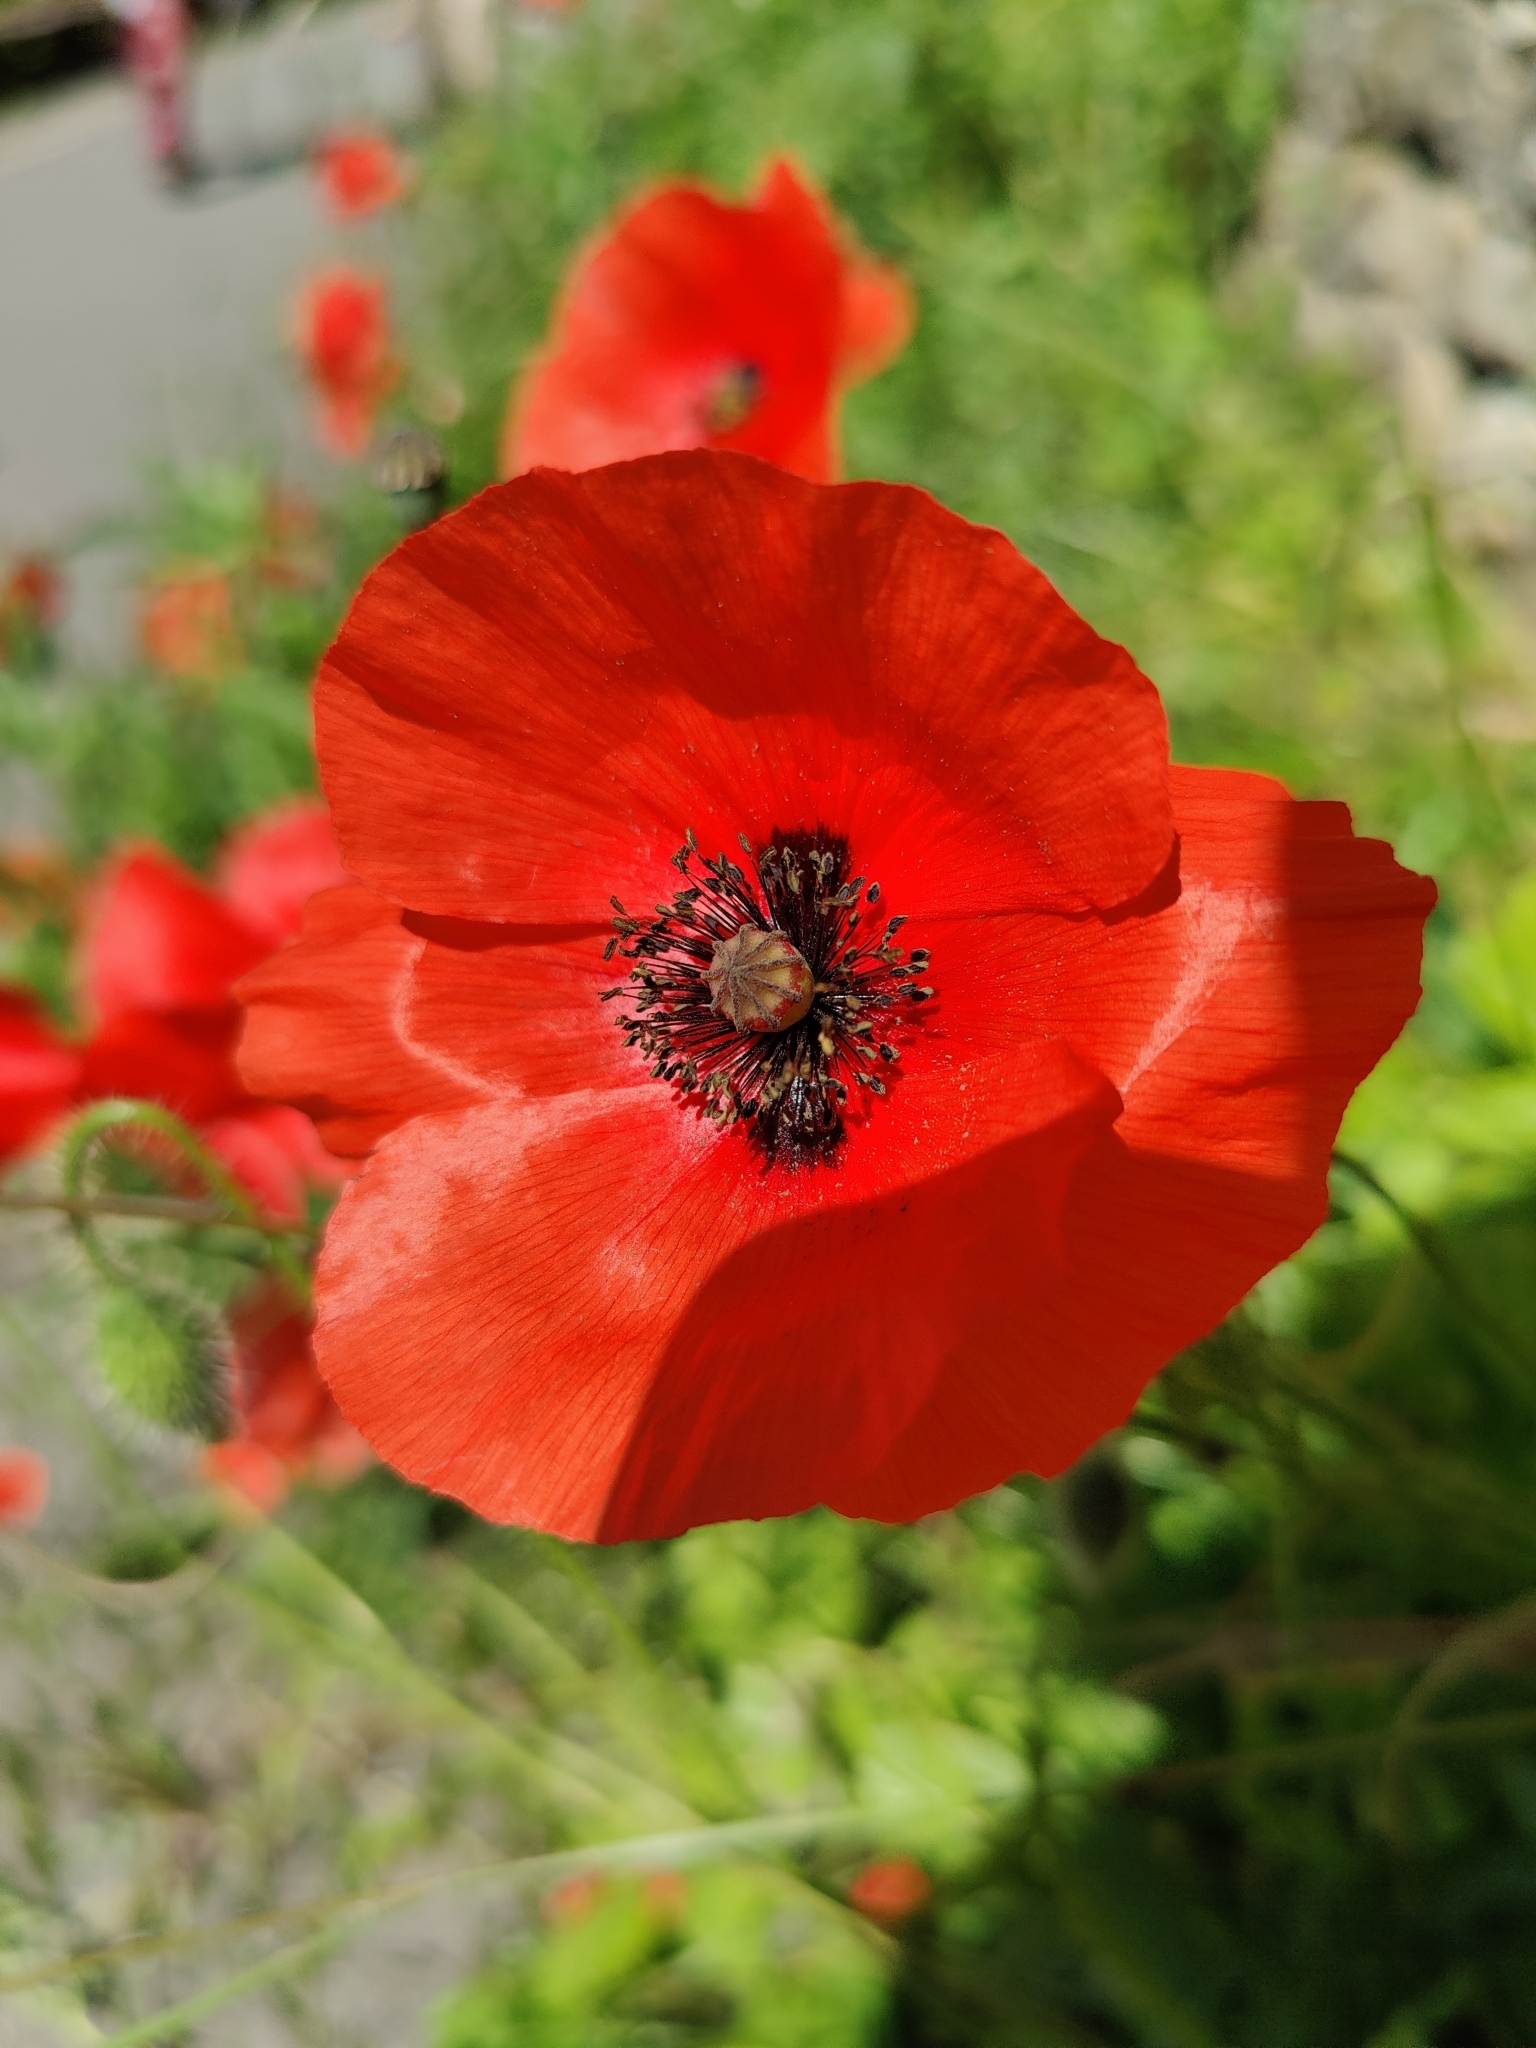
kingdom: Plantae
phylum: Tracheophyta
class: Magnoliopsida
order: Ranunculales
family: Papaveraceae
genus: Papaver
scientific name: Papaver rhoeas
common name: Corn poppy
